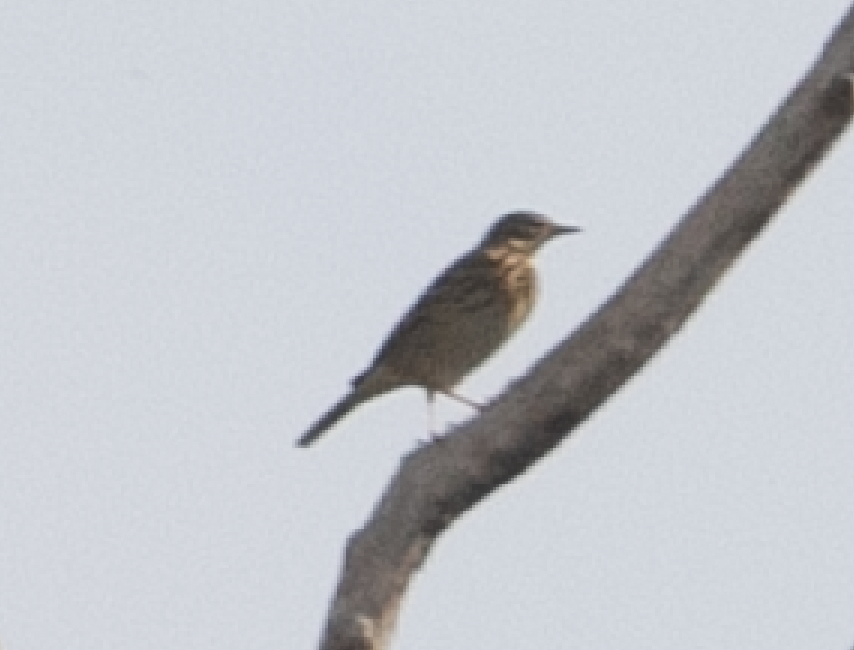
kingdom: Animalia
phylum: Chordata
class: Aves
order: Passeriformes
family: Motacillidae
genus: Anthus
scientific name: Anthus trivialis
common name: Tree pipit
